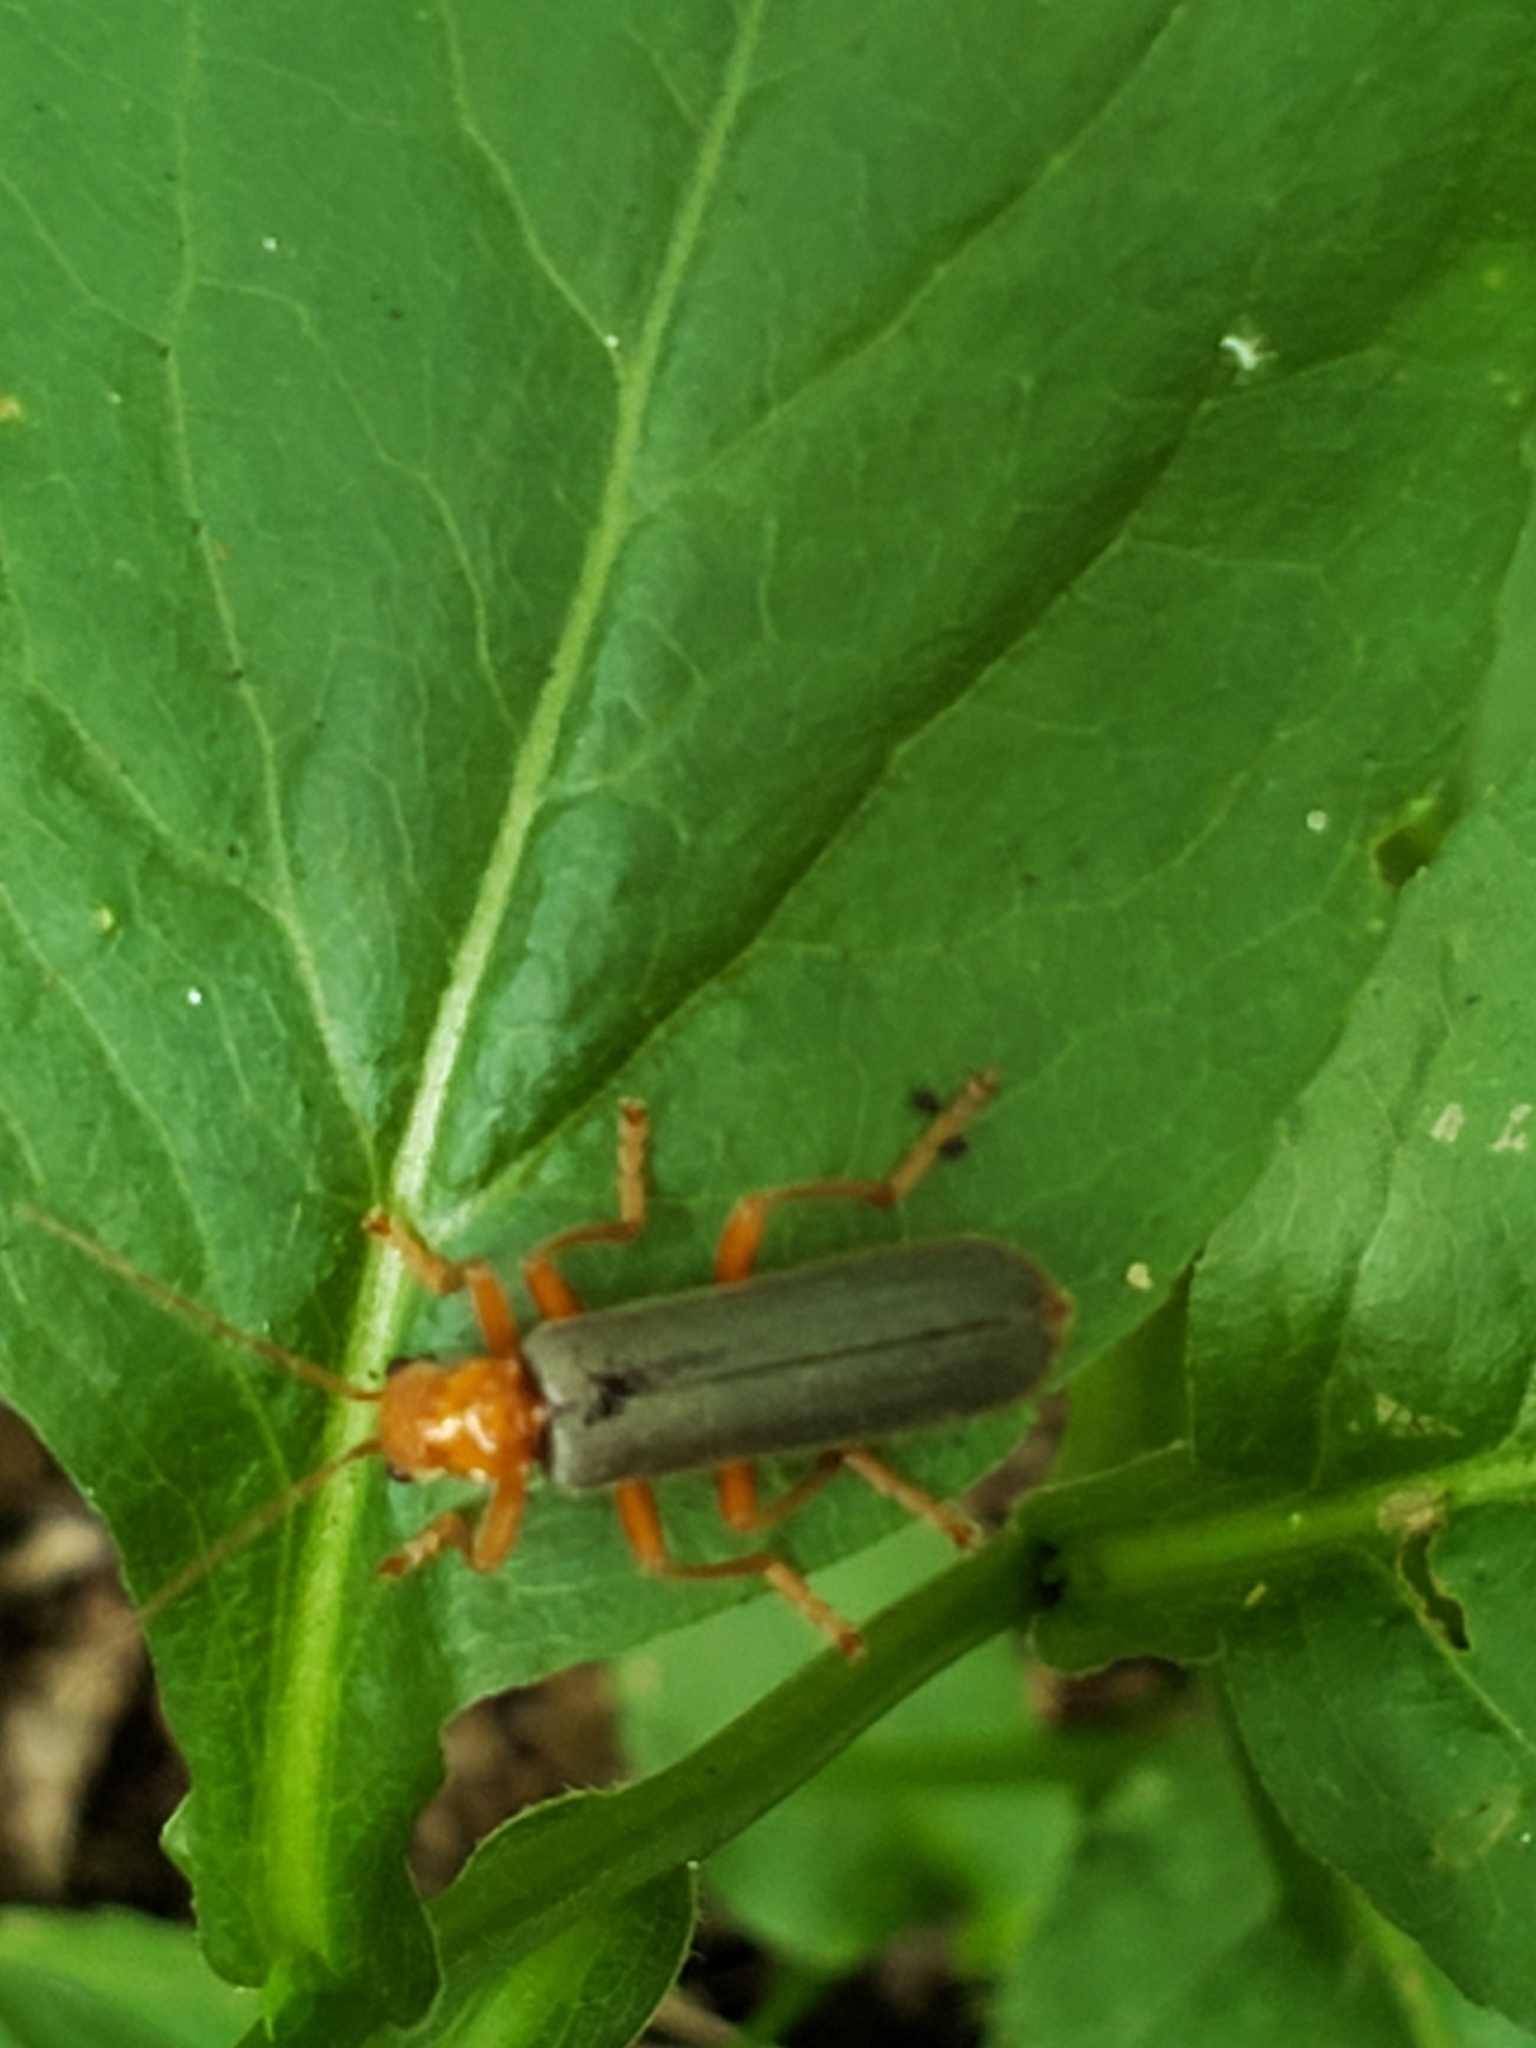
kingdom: Animalia
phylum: Arthropoda
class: Insecta
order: Coleoptera
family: Cantharidae
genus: Pacificanthia
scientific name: Pacificanthia rotundicollis
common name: Brown leatherwing beetle
